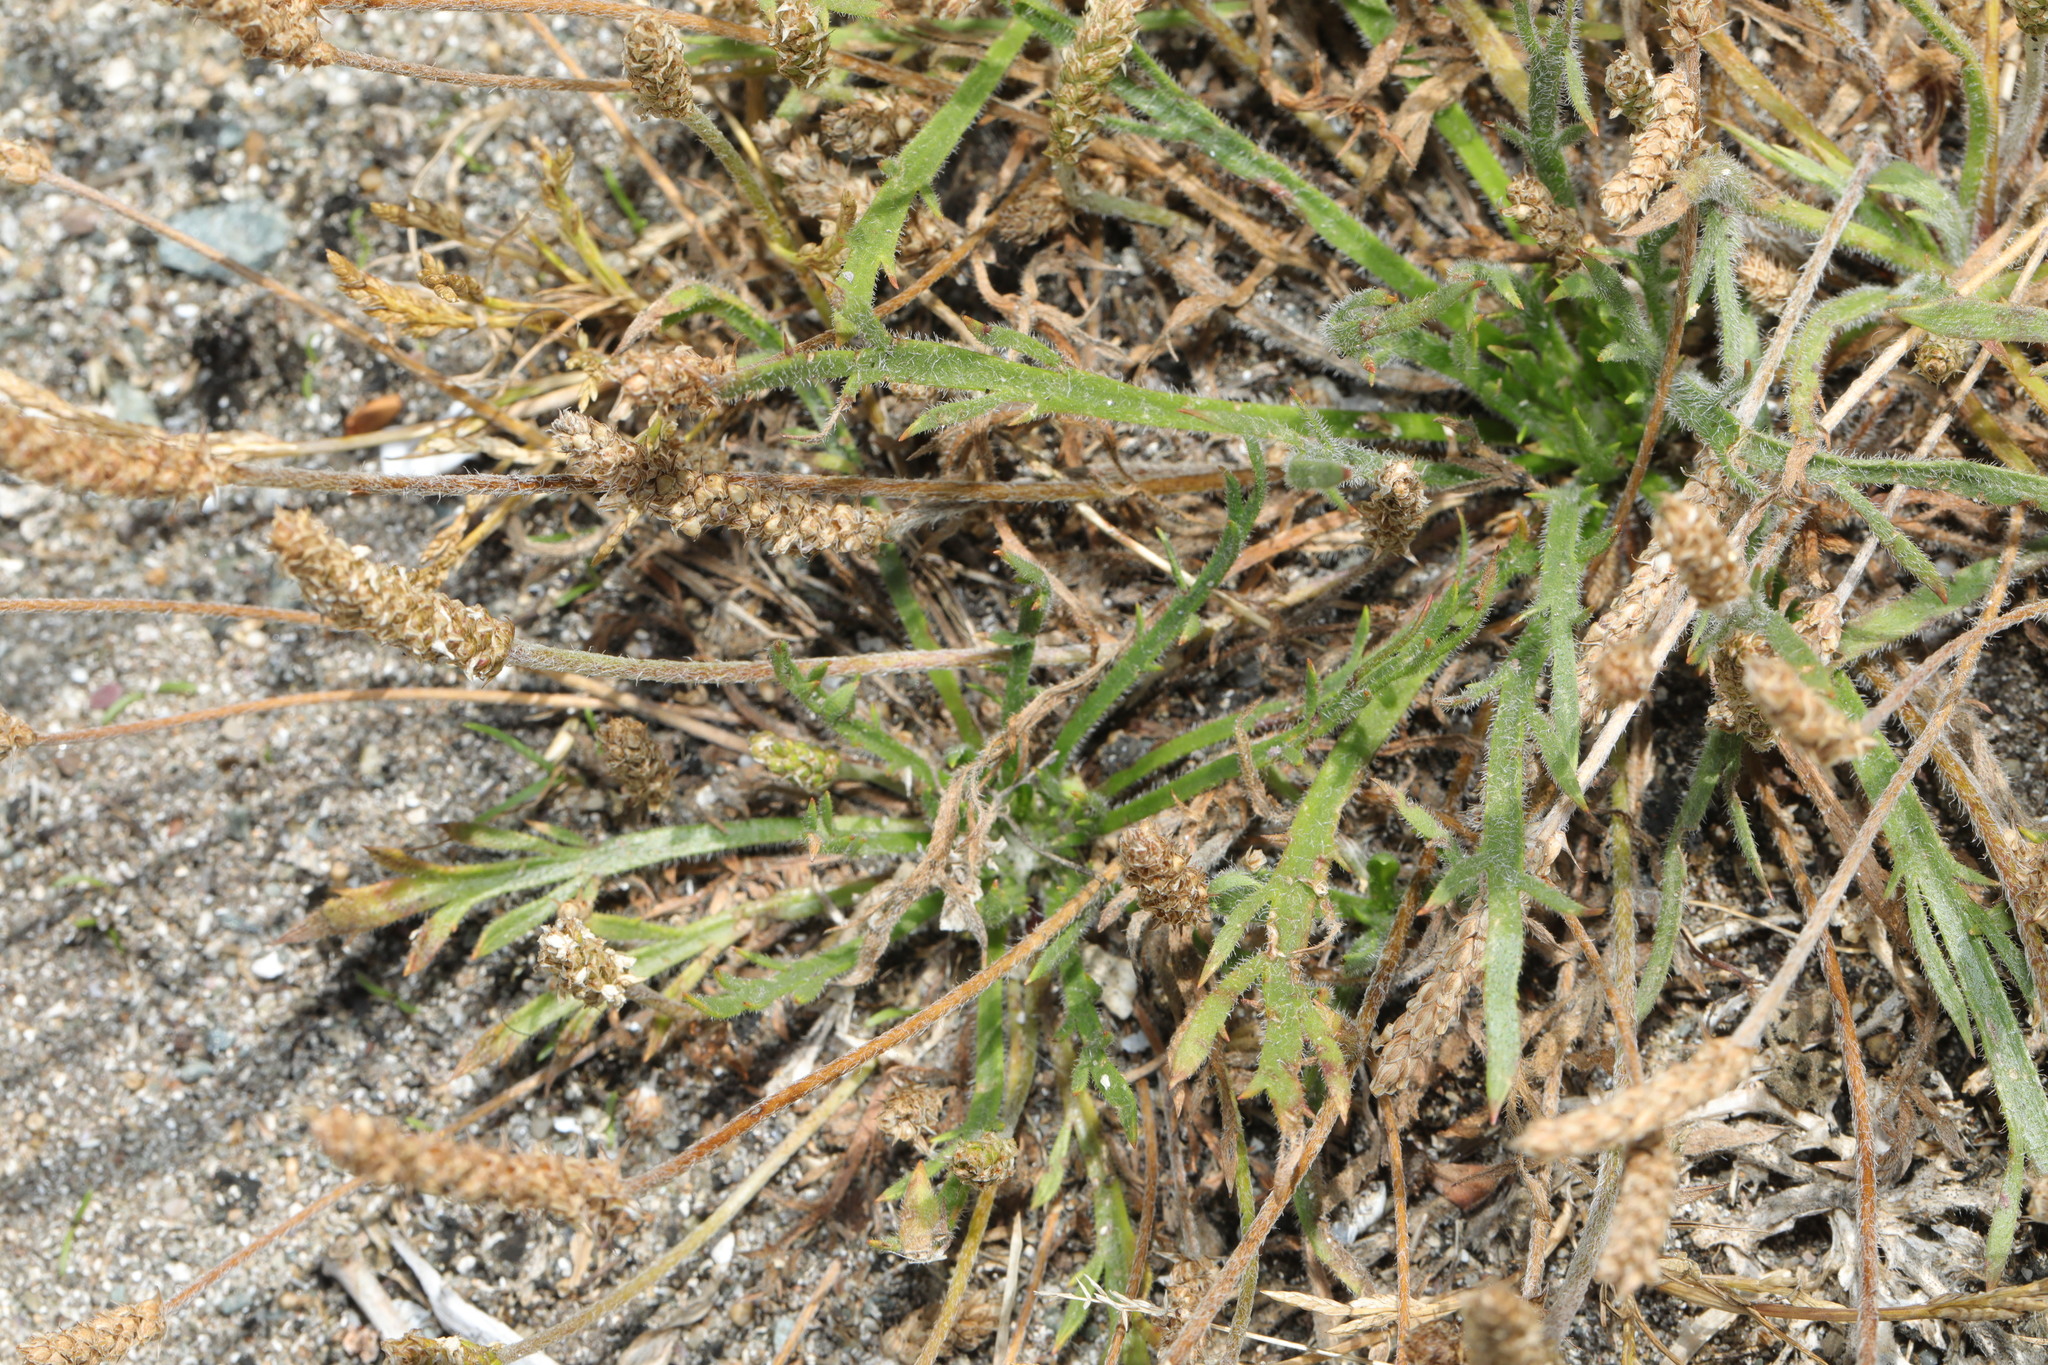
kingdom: Plantae
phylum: Tracheophyta
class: Magnoliopsida
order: Lamiales
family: Plantaginaceae
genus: Plantago
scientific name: Plantago coronopus
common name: Buck's-horn plantain
